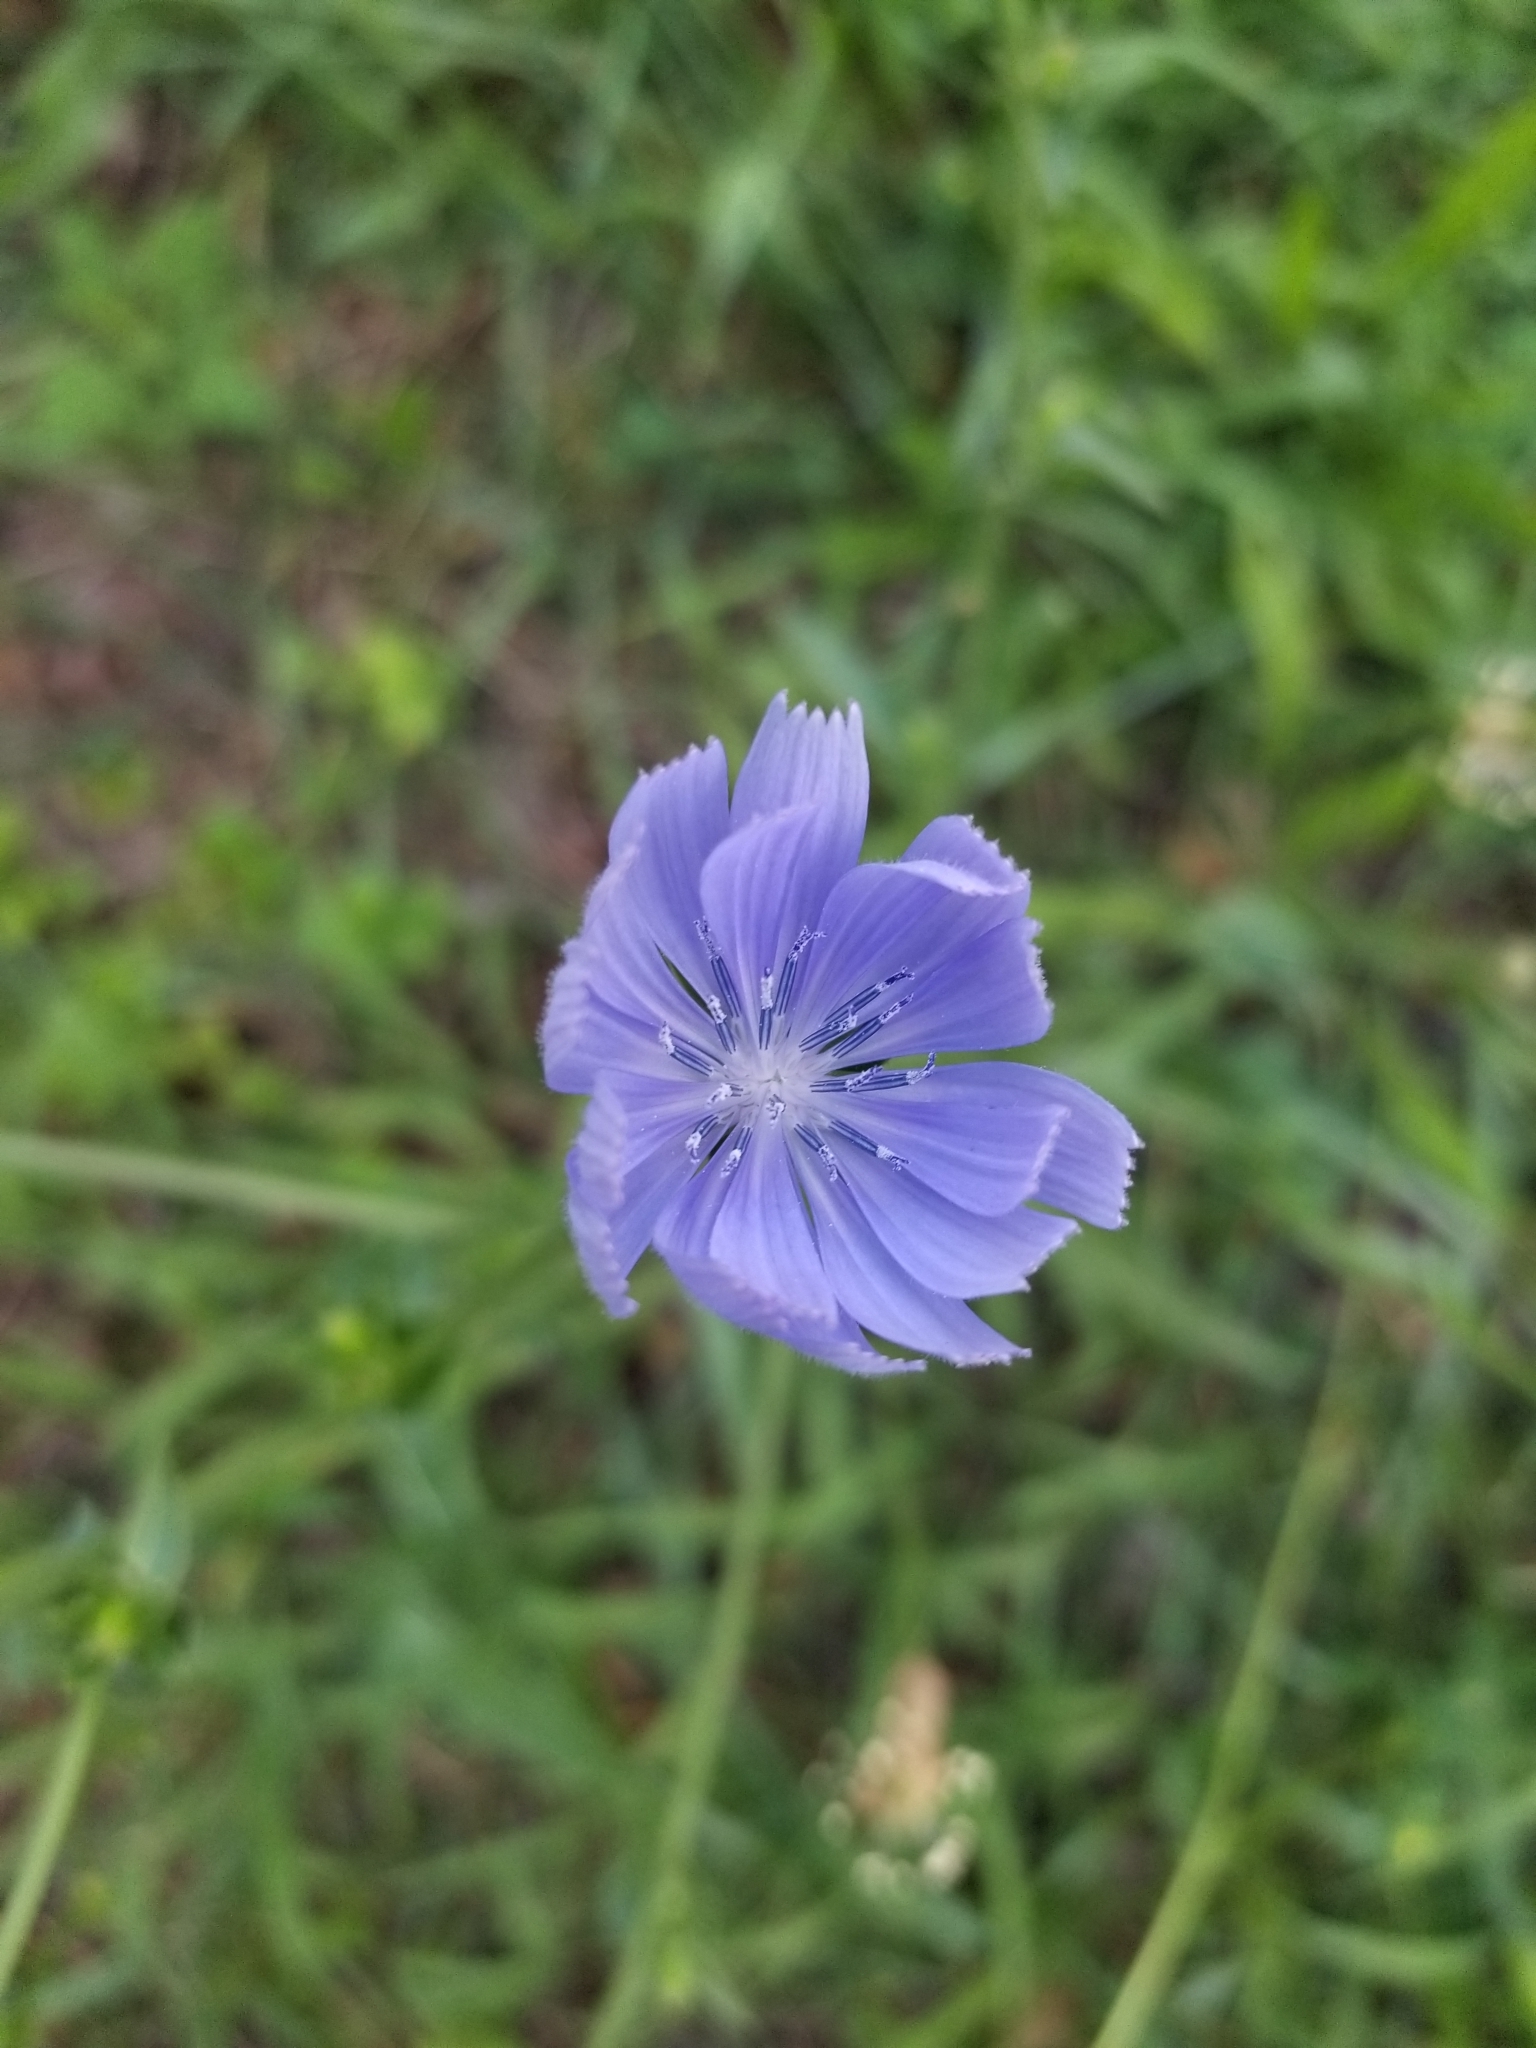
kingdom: Plantae
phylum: Tracheophyta
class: Magnoliopsida
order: Asterales
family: Asteraceae
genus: Cichorium
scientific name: Cichorium intybus
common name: Chicory
